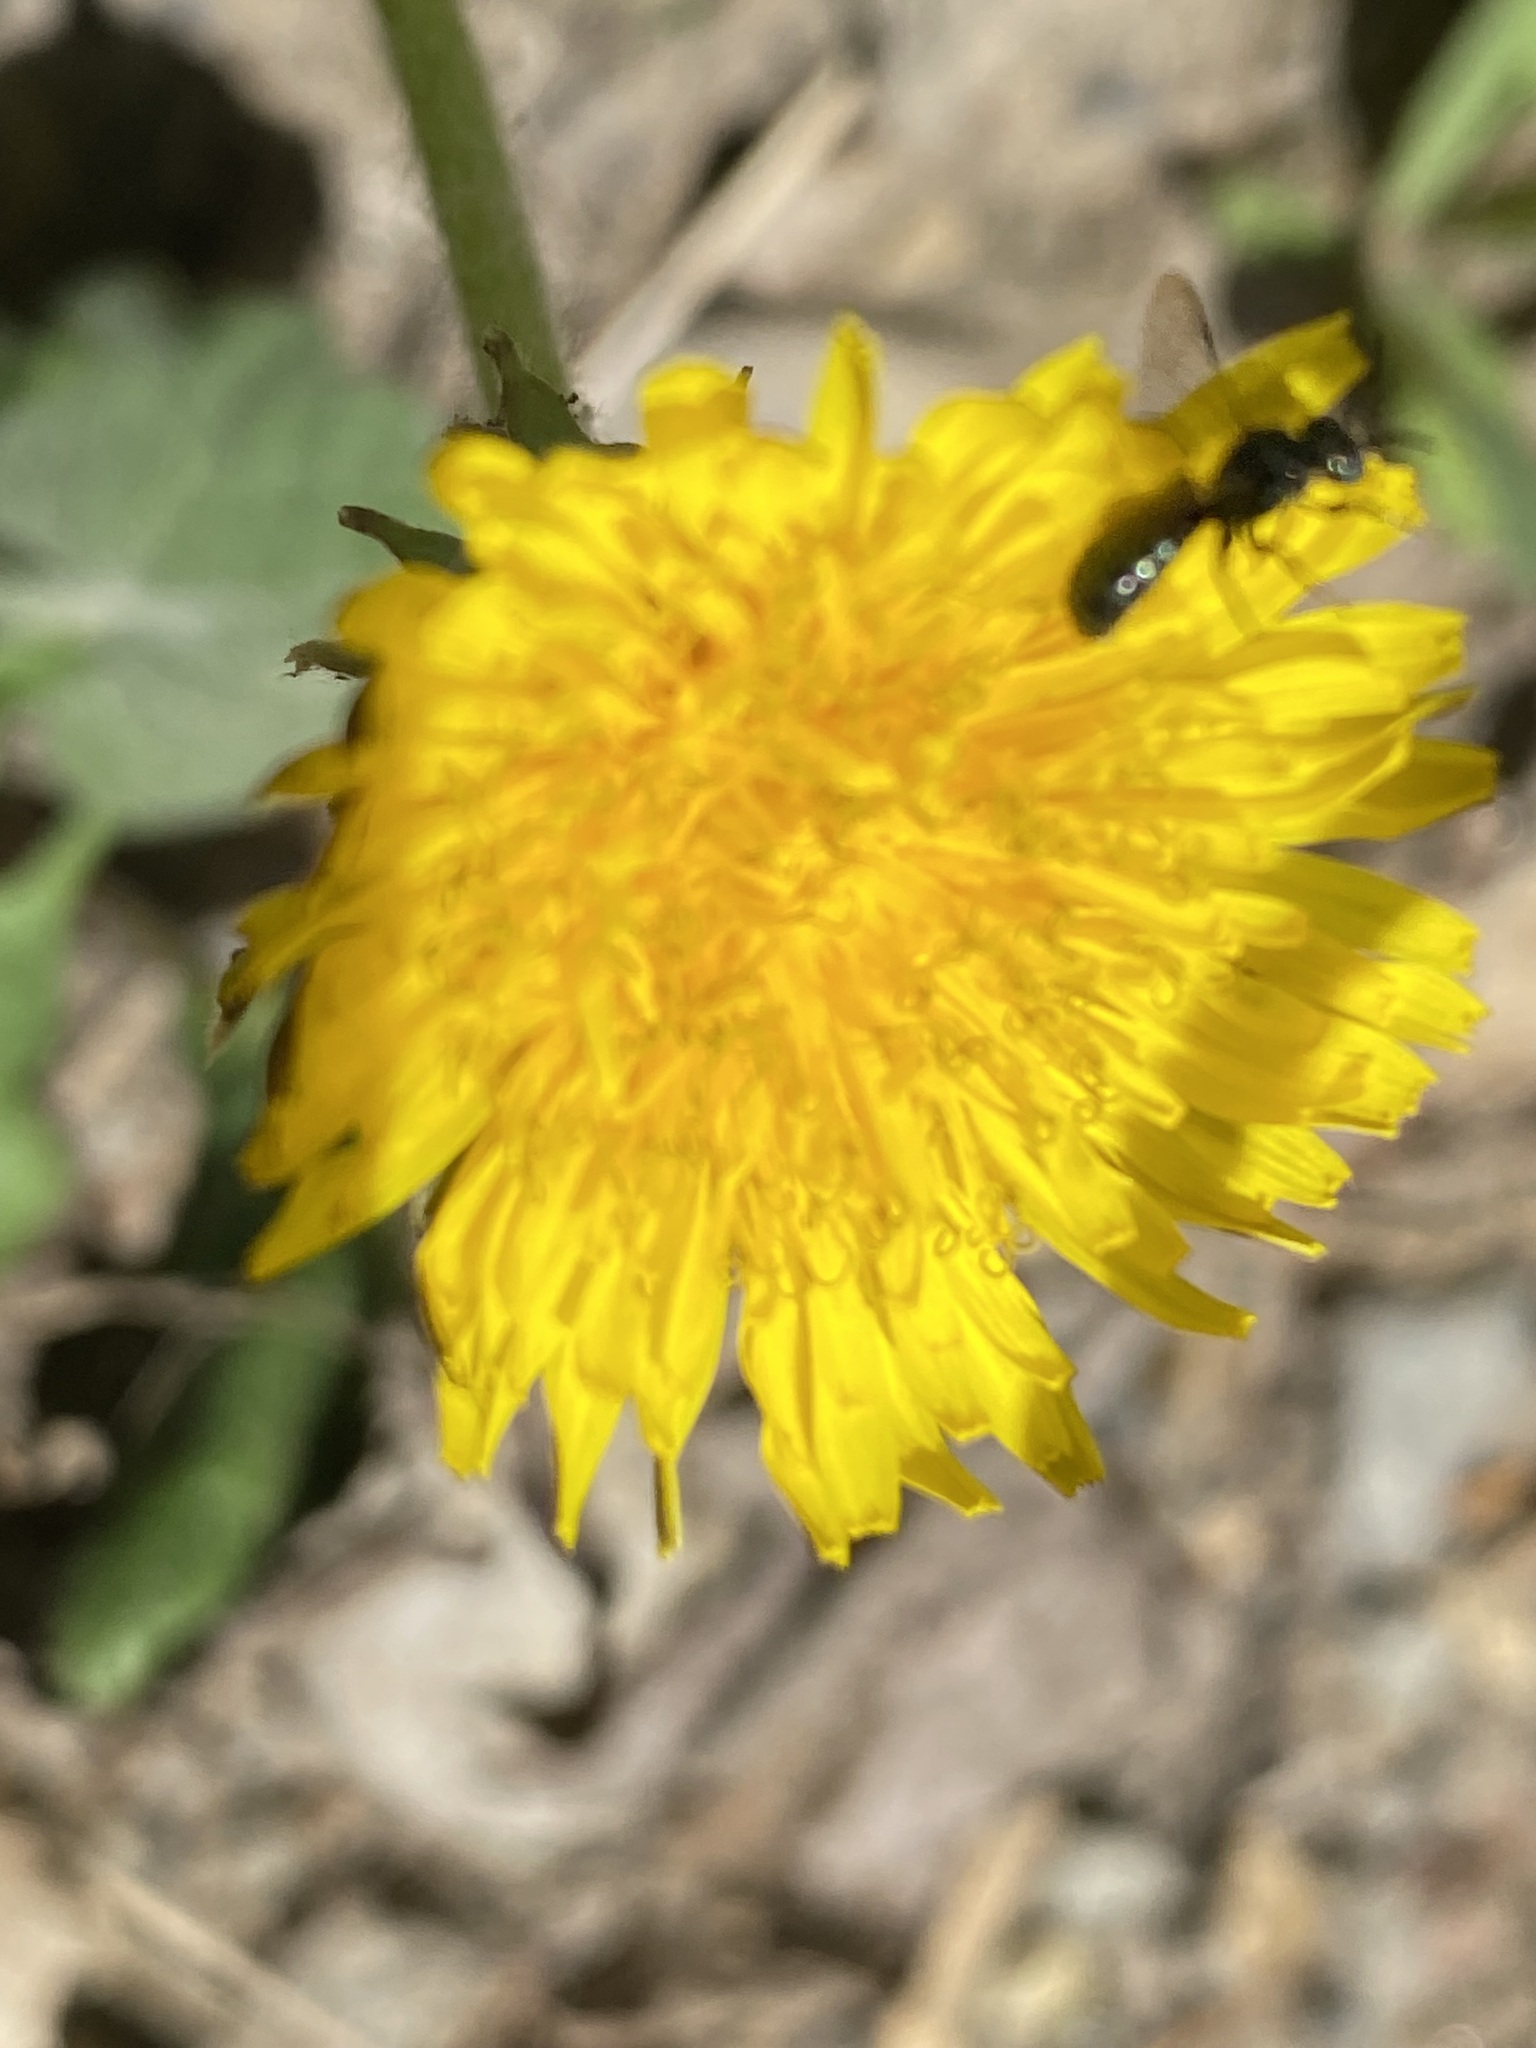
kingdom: Plantae
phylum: Tracheophyta
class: Magnoliopsida
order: Asterales
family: Asteraceae
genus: Tussilago
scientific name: Tussilago farfara
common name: Coltsfoot
